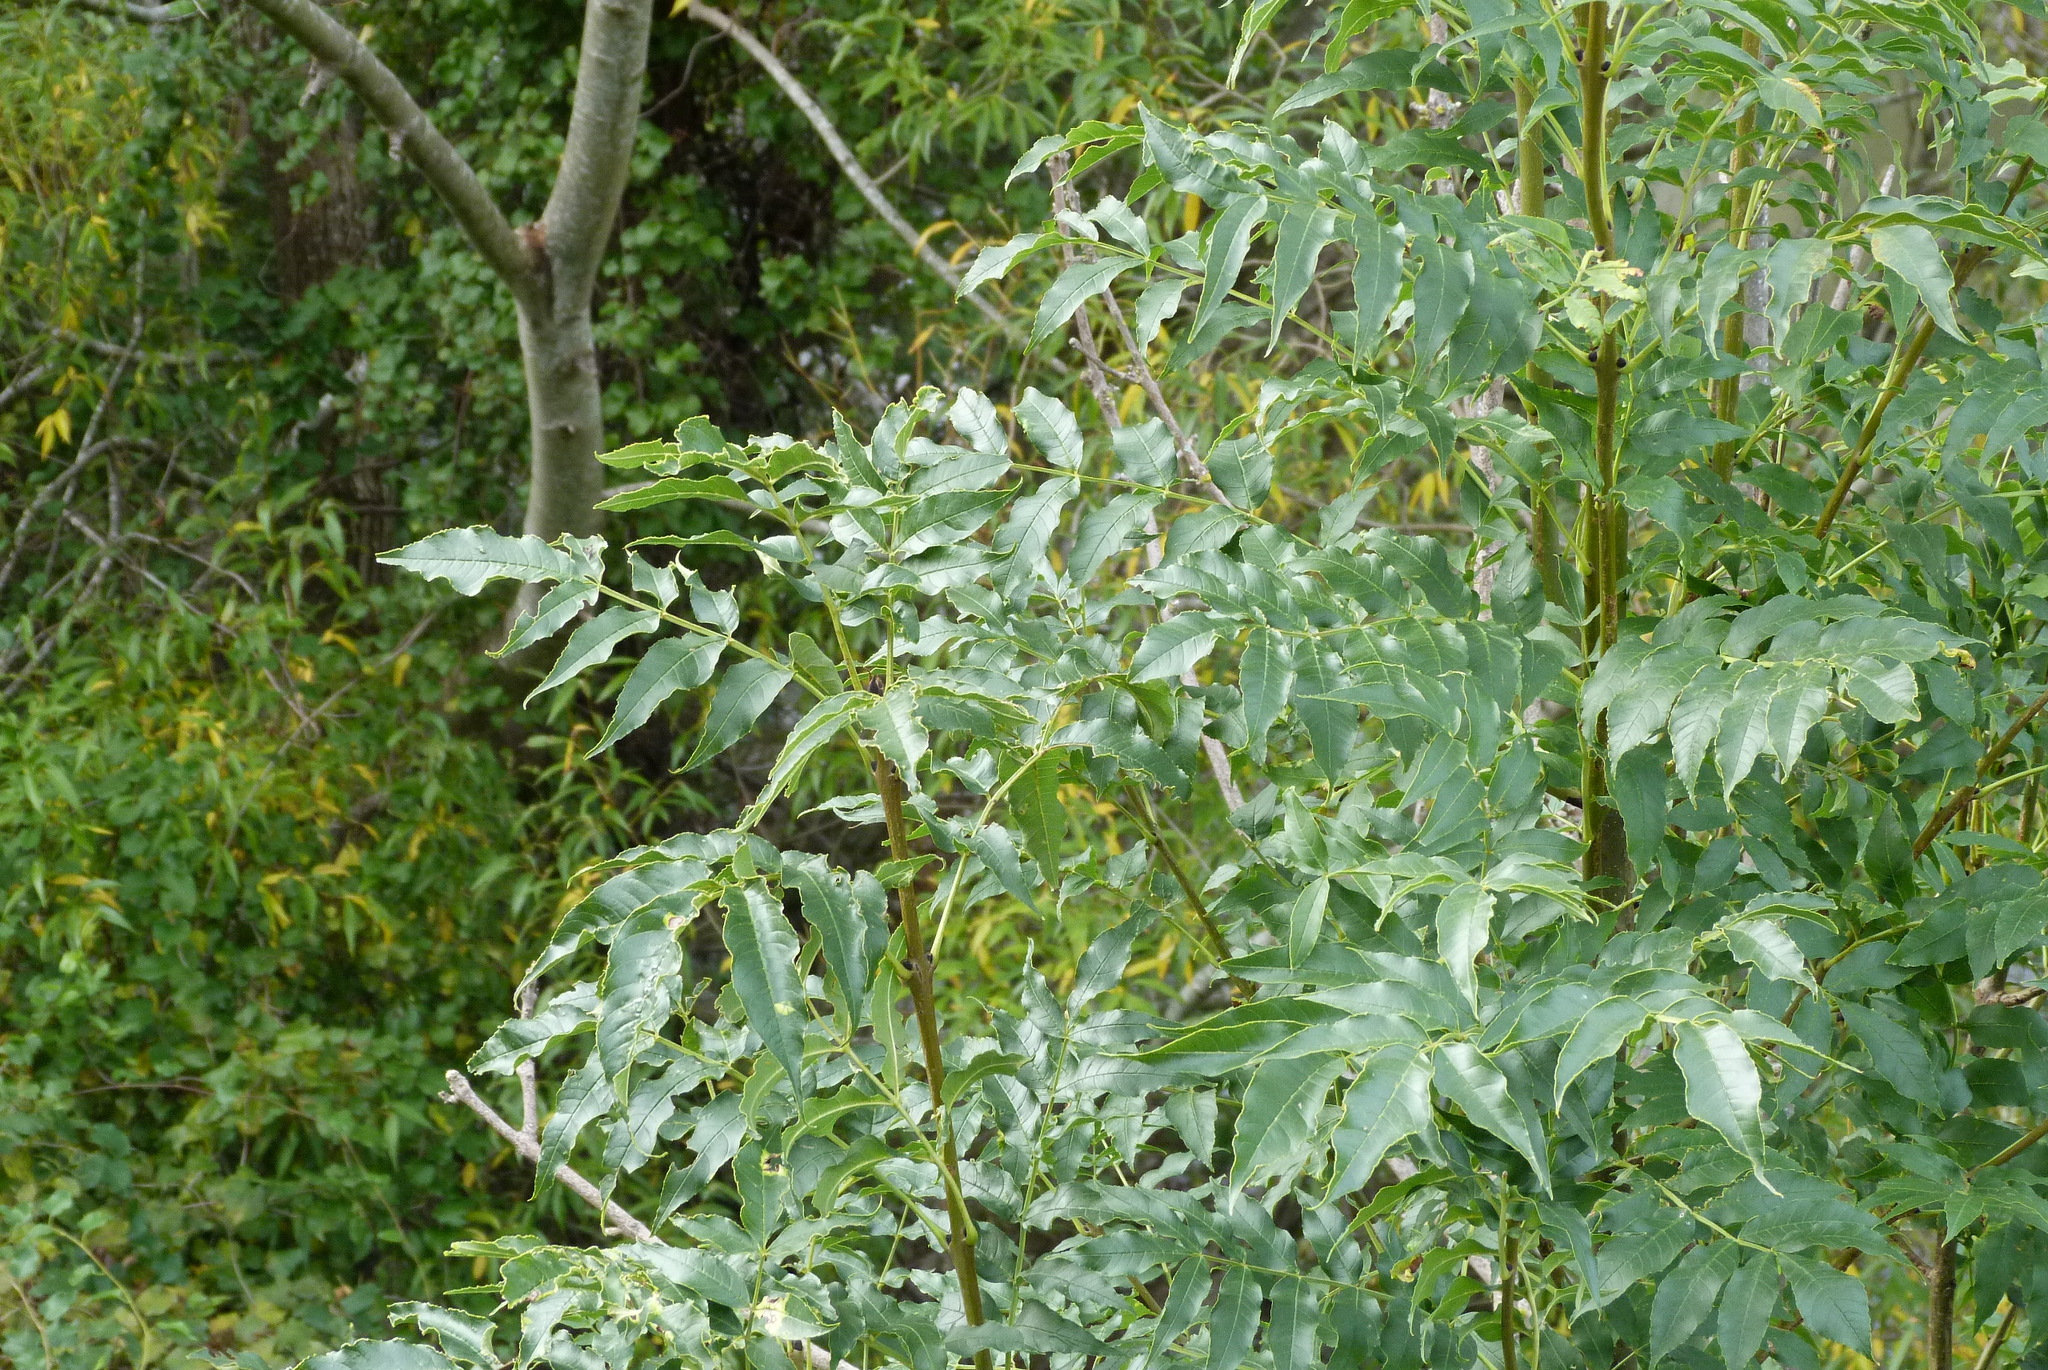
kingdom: Plantae
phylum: Tracheophyta
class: Magnoliopsida
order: Lamiales
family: Oleaceae
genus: Fraxinus
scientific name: Fraxinus excelsior
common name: European ash
